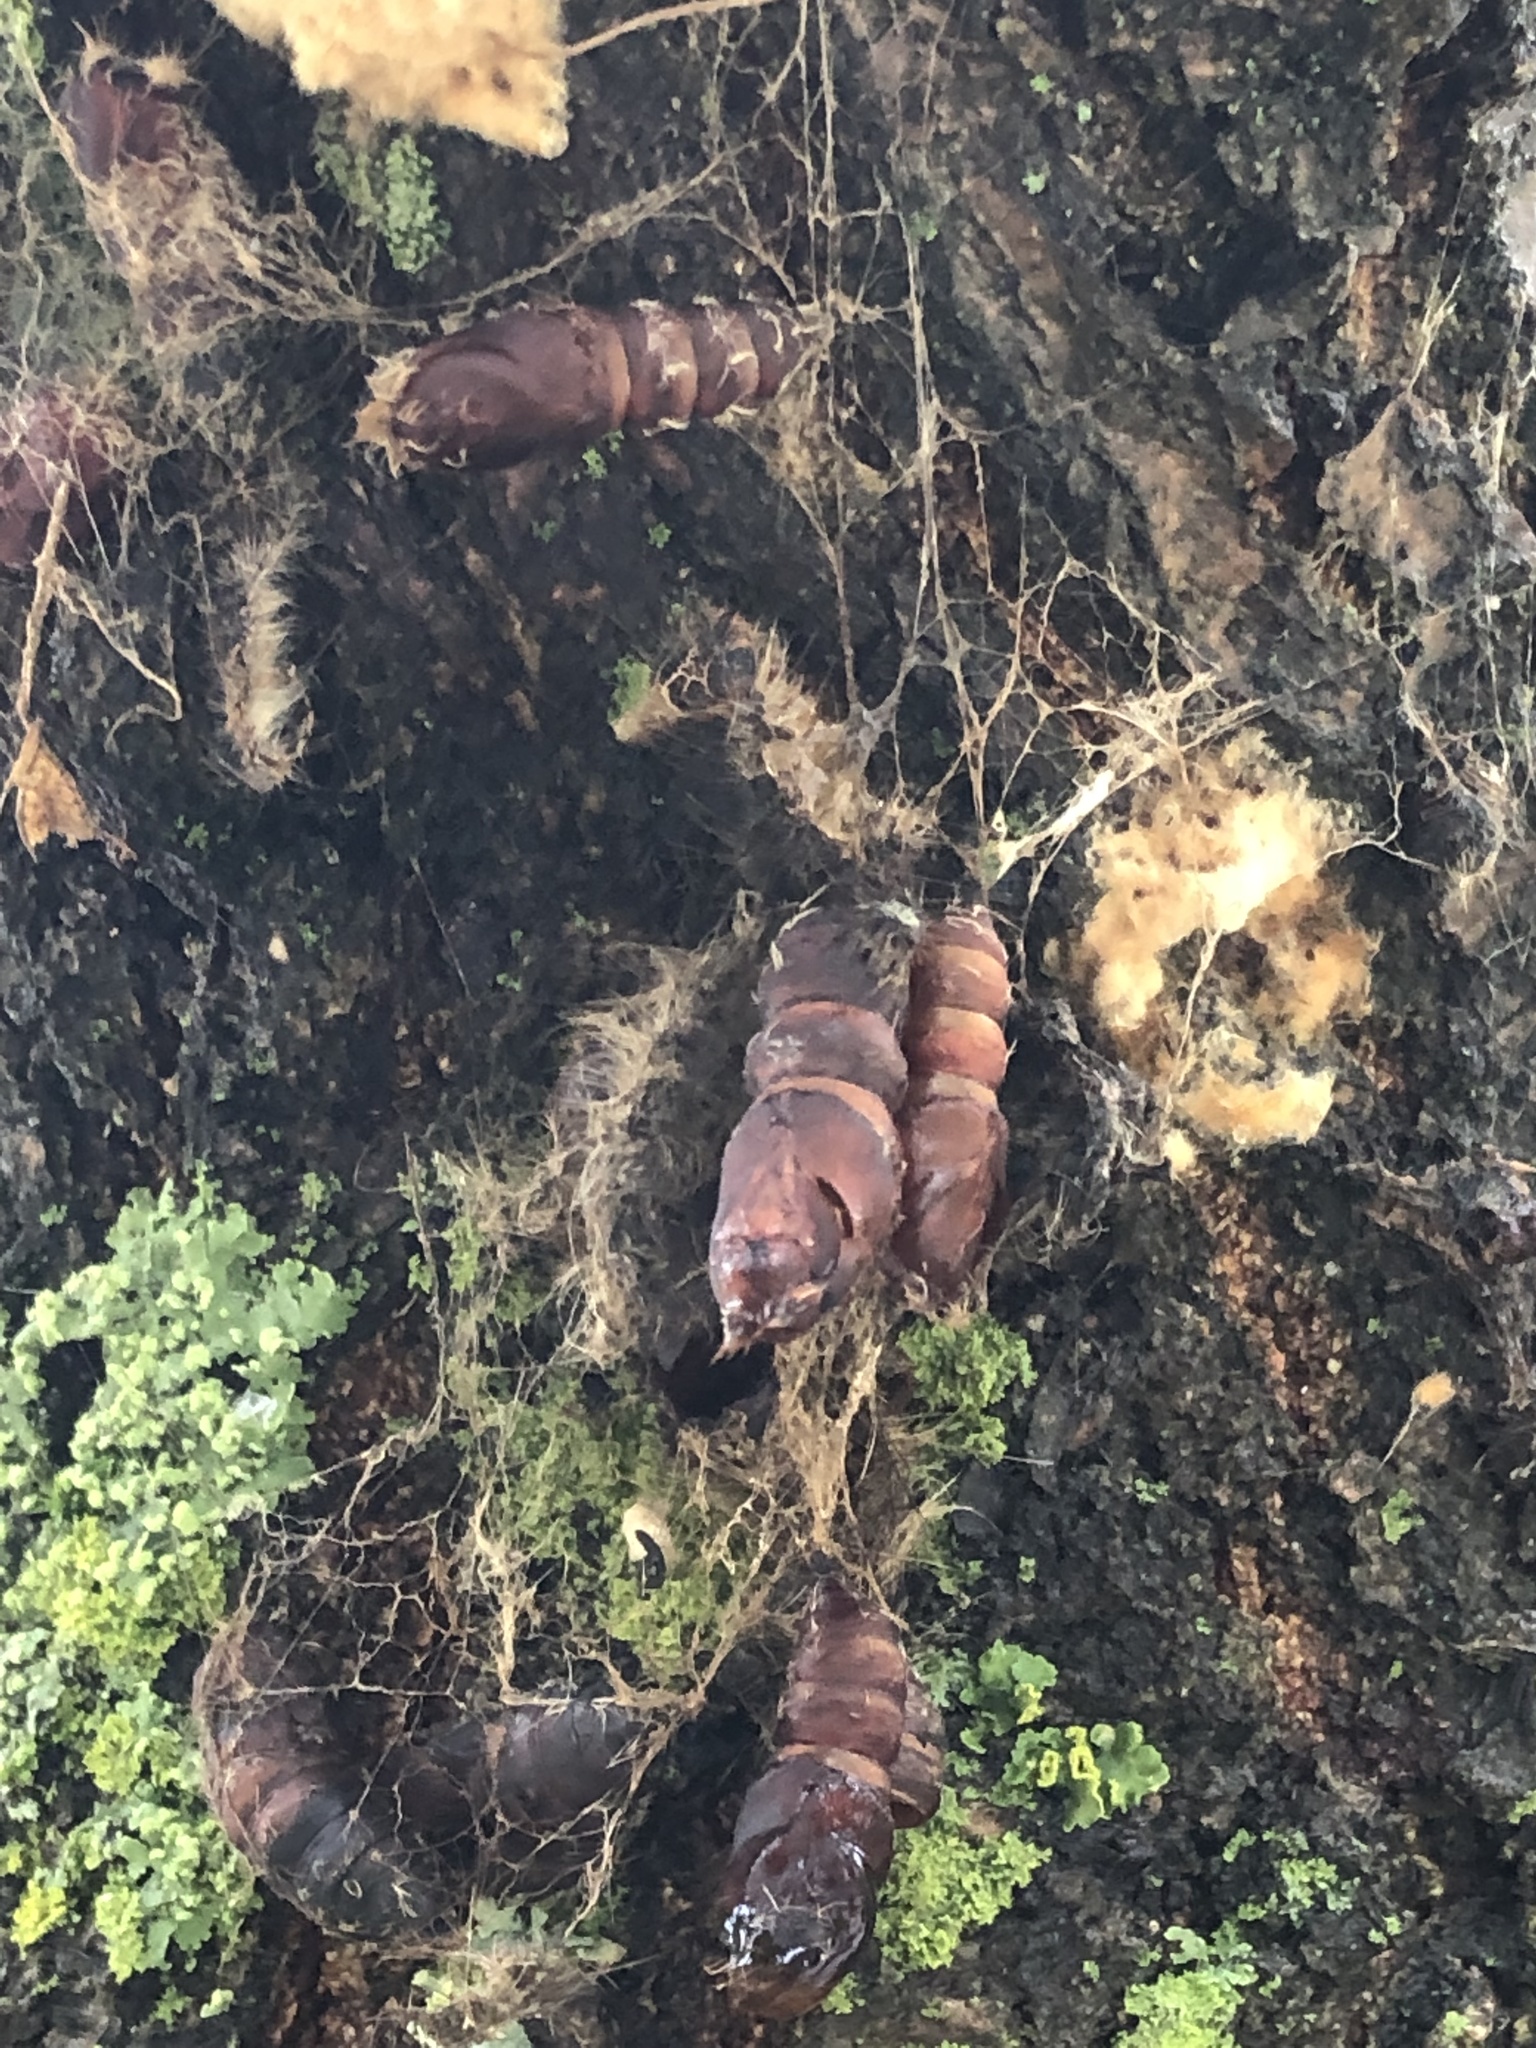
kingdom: Animalia
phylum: Arthropoda
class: Insecta
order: Lepidoptera
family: Erebidae
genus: Lymantria
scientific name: Lymantria dispar
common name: Gypsy moth
